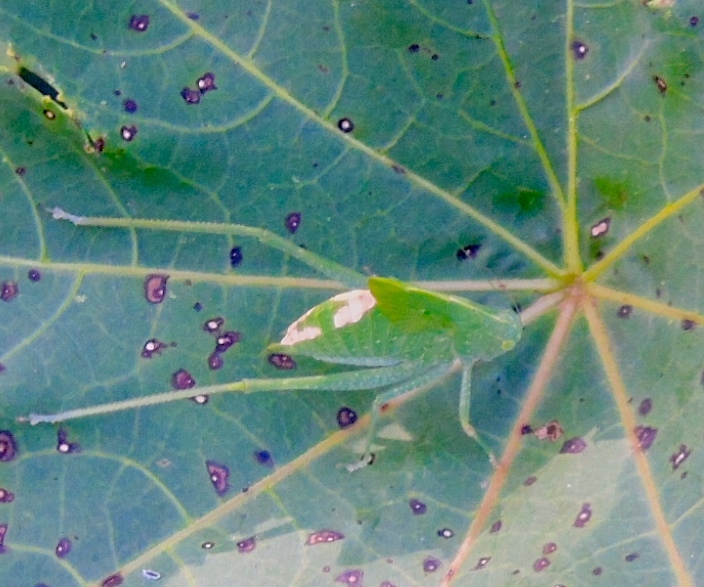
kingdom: Animalia
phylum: Arthropoda
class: Insecta
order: Orthoptera
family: Tettigoniidae
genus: Microcentrum
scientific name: Microcentrum
